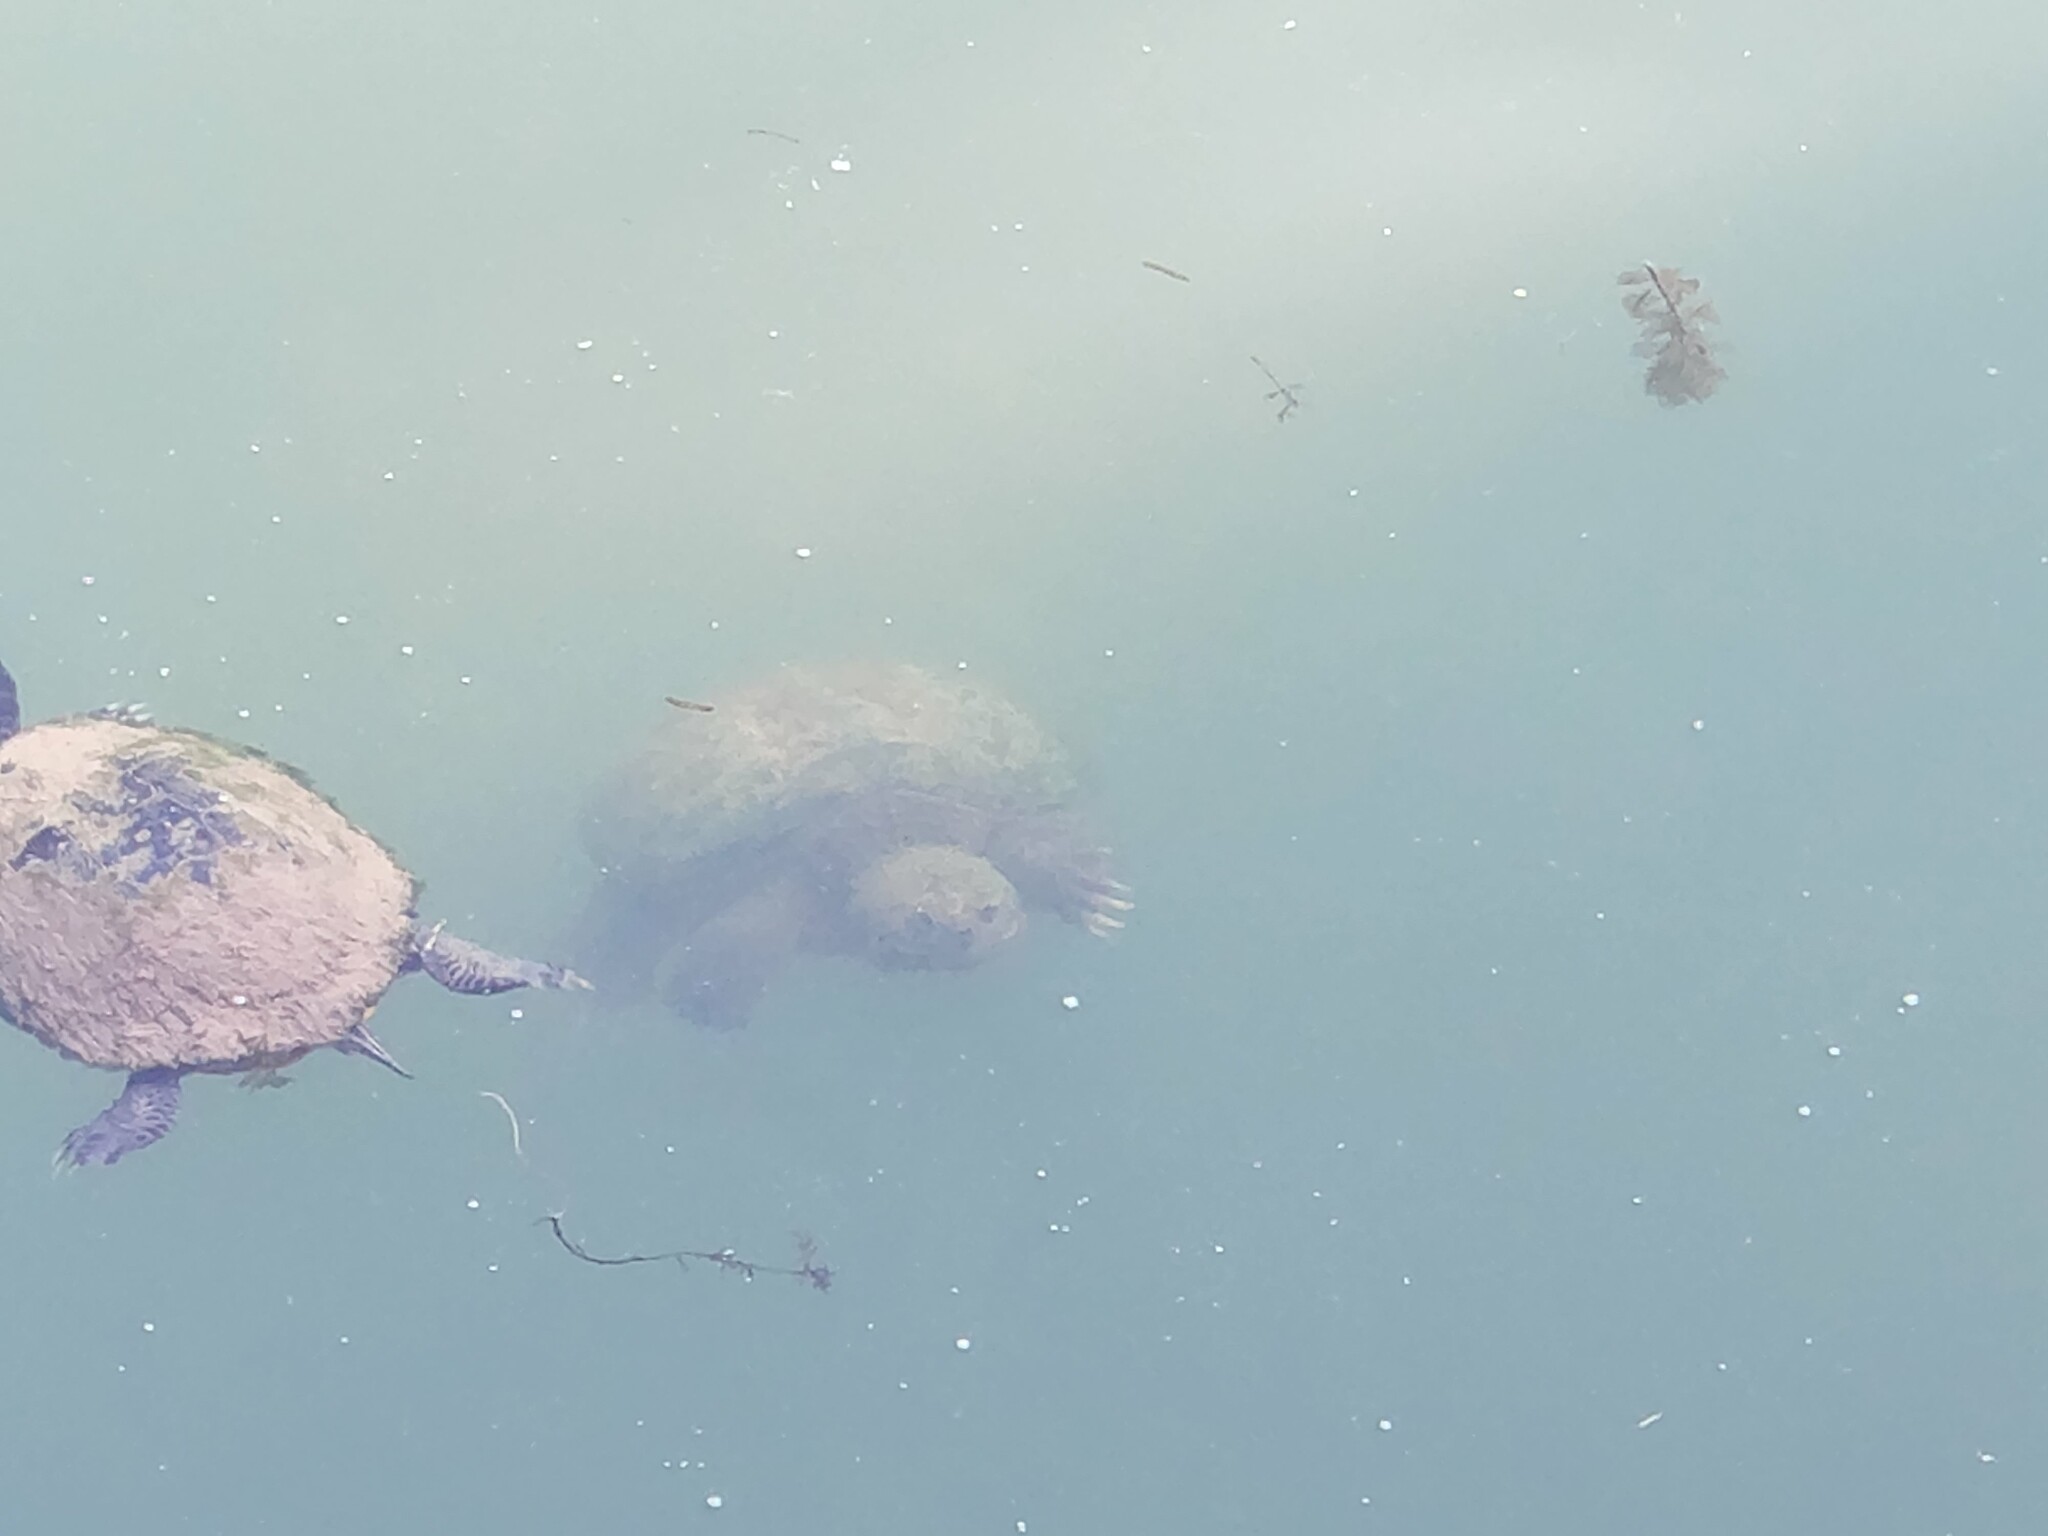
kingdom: Animalia
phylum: Chordata
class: Testudines
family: Chelydridae
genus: Chelydra
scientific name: Chelydra serpentina
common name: Common snapping turtle
